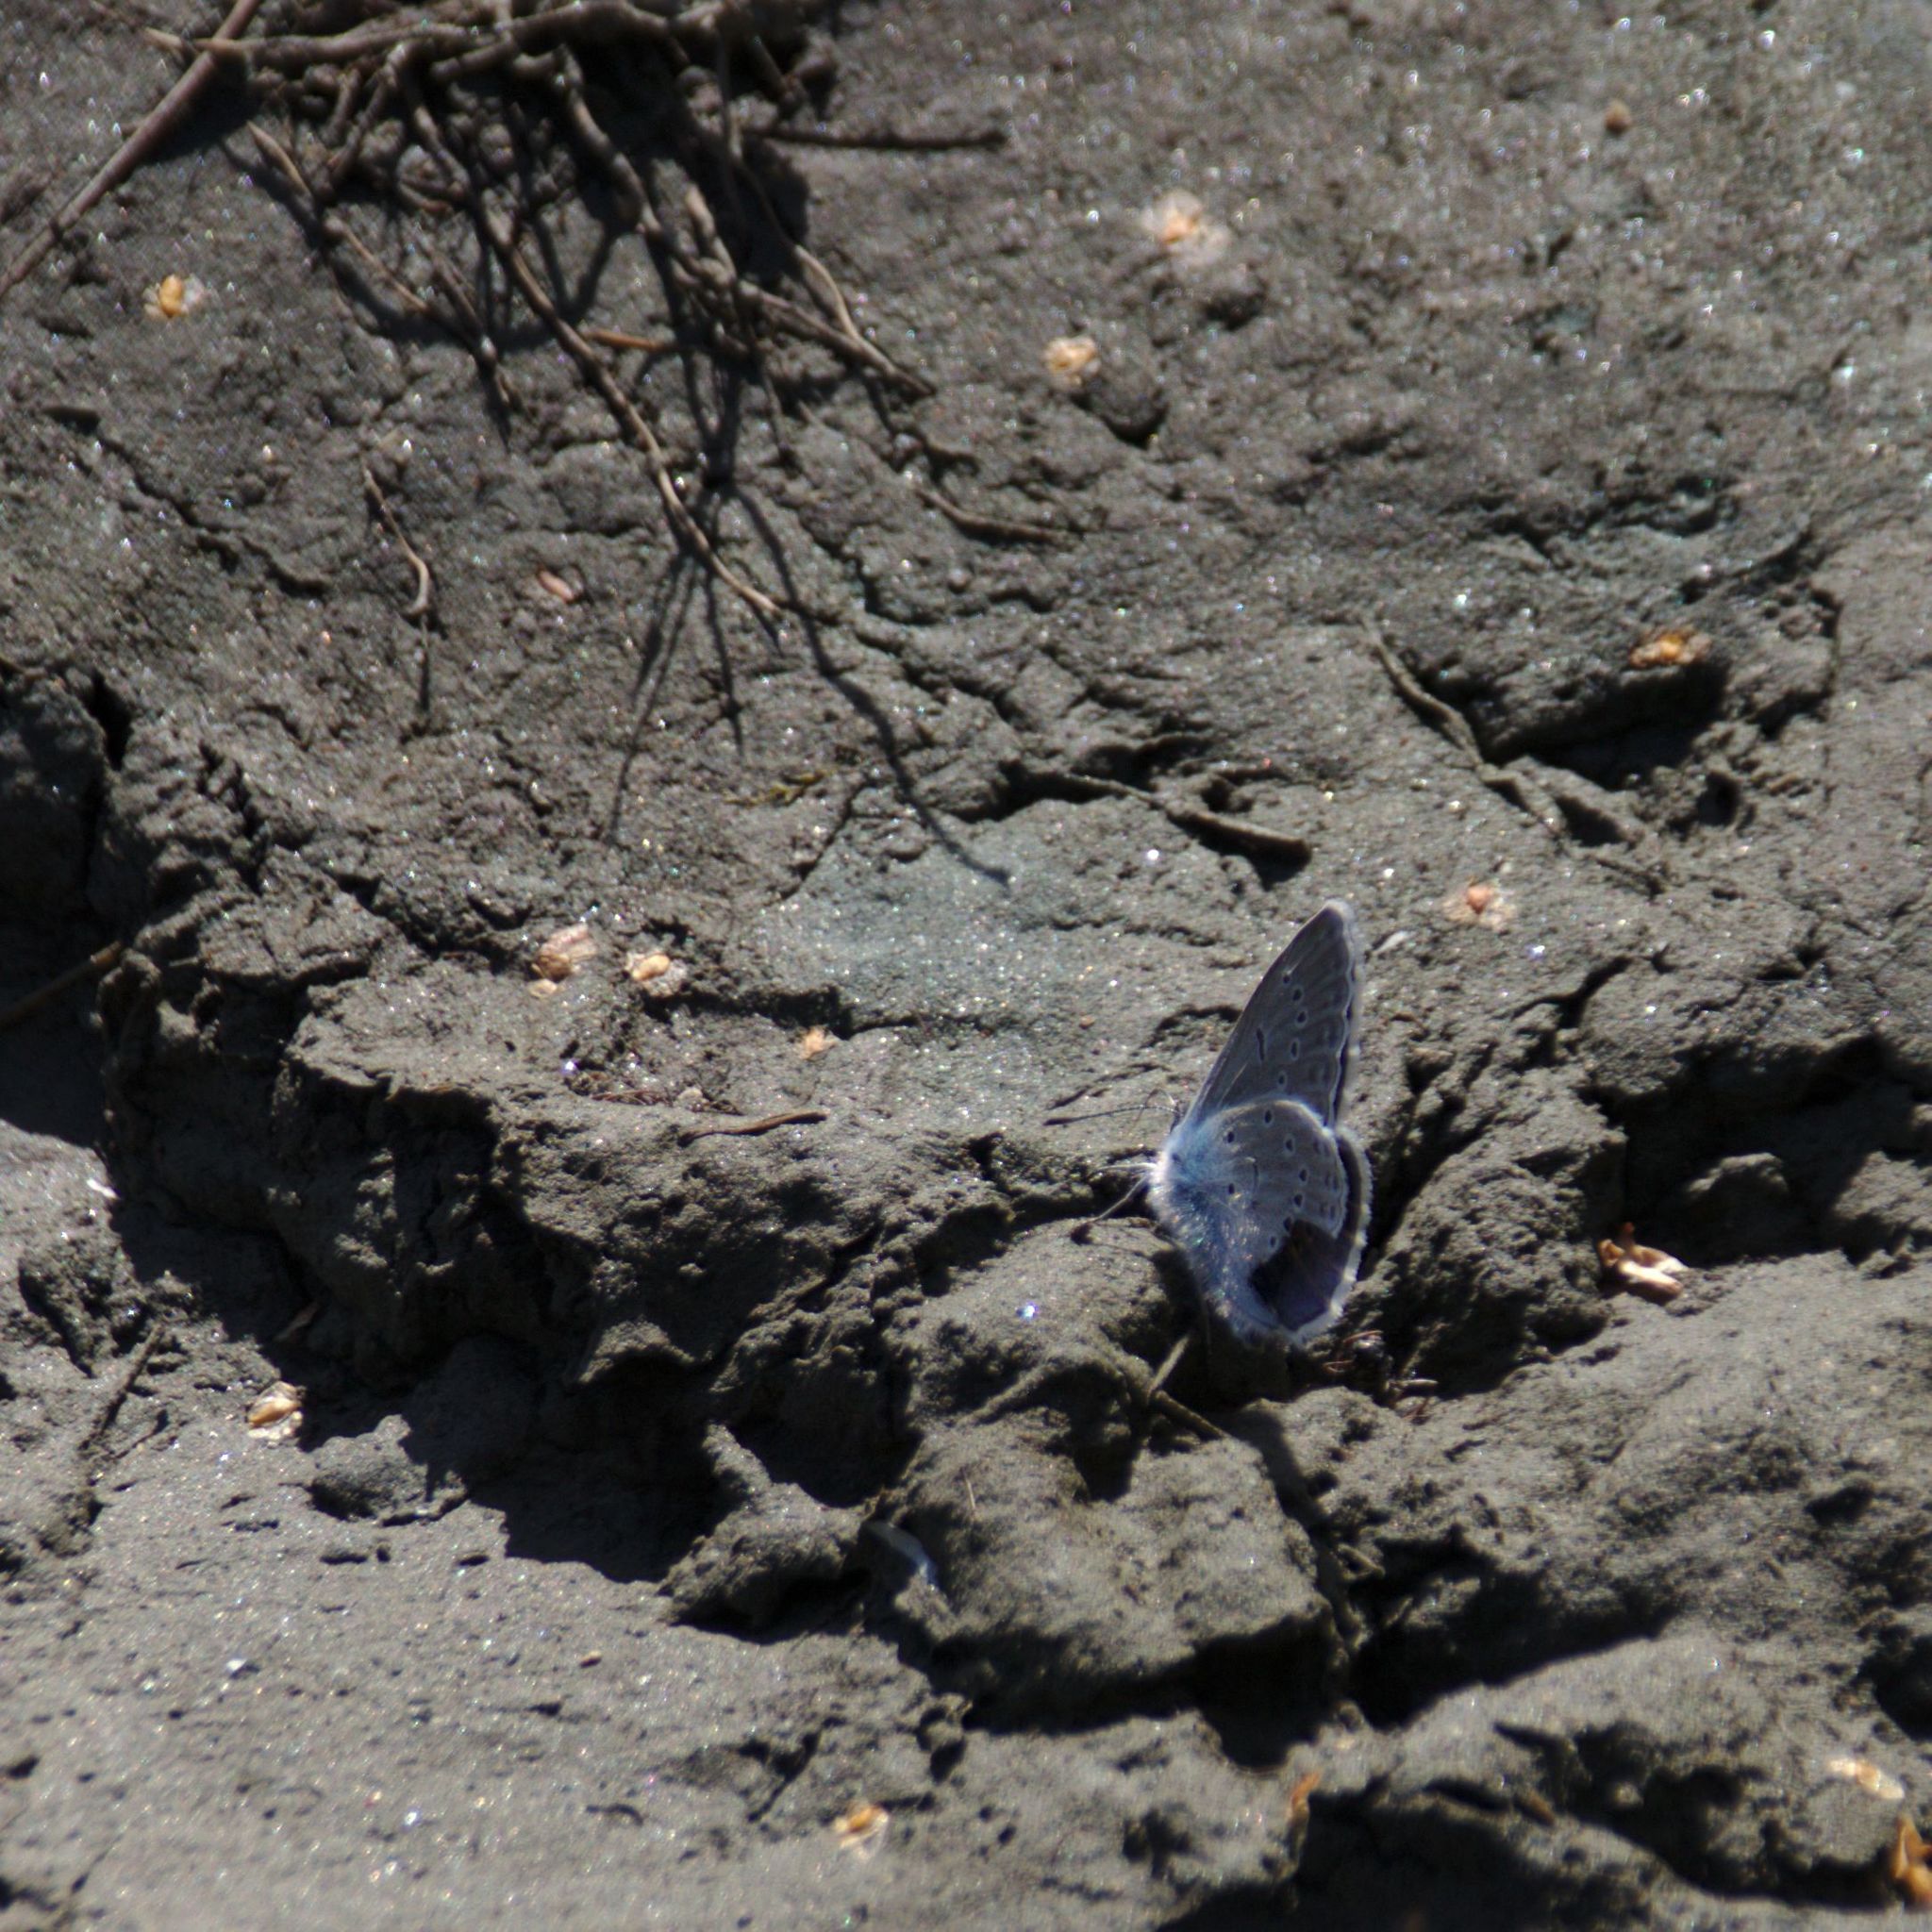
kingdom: Animalia
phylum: Arthropoda
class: Insecta
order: Lepidoptera
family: Lycaenidae
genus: Maculinea
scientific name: Maculinea alcon
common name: Alcon blue
